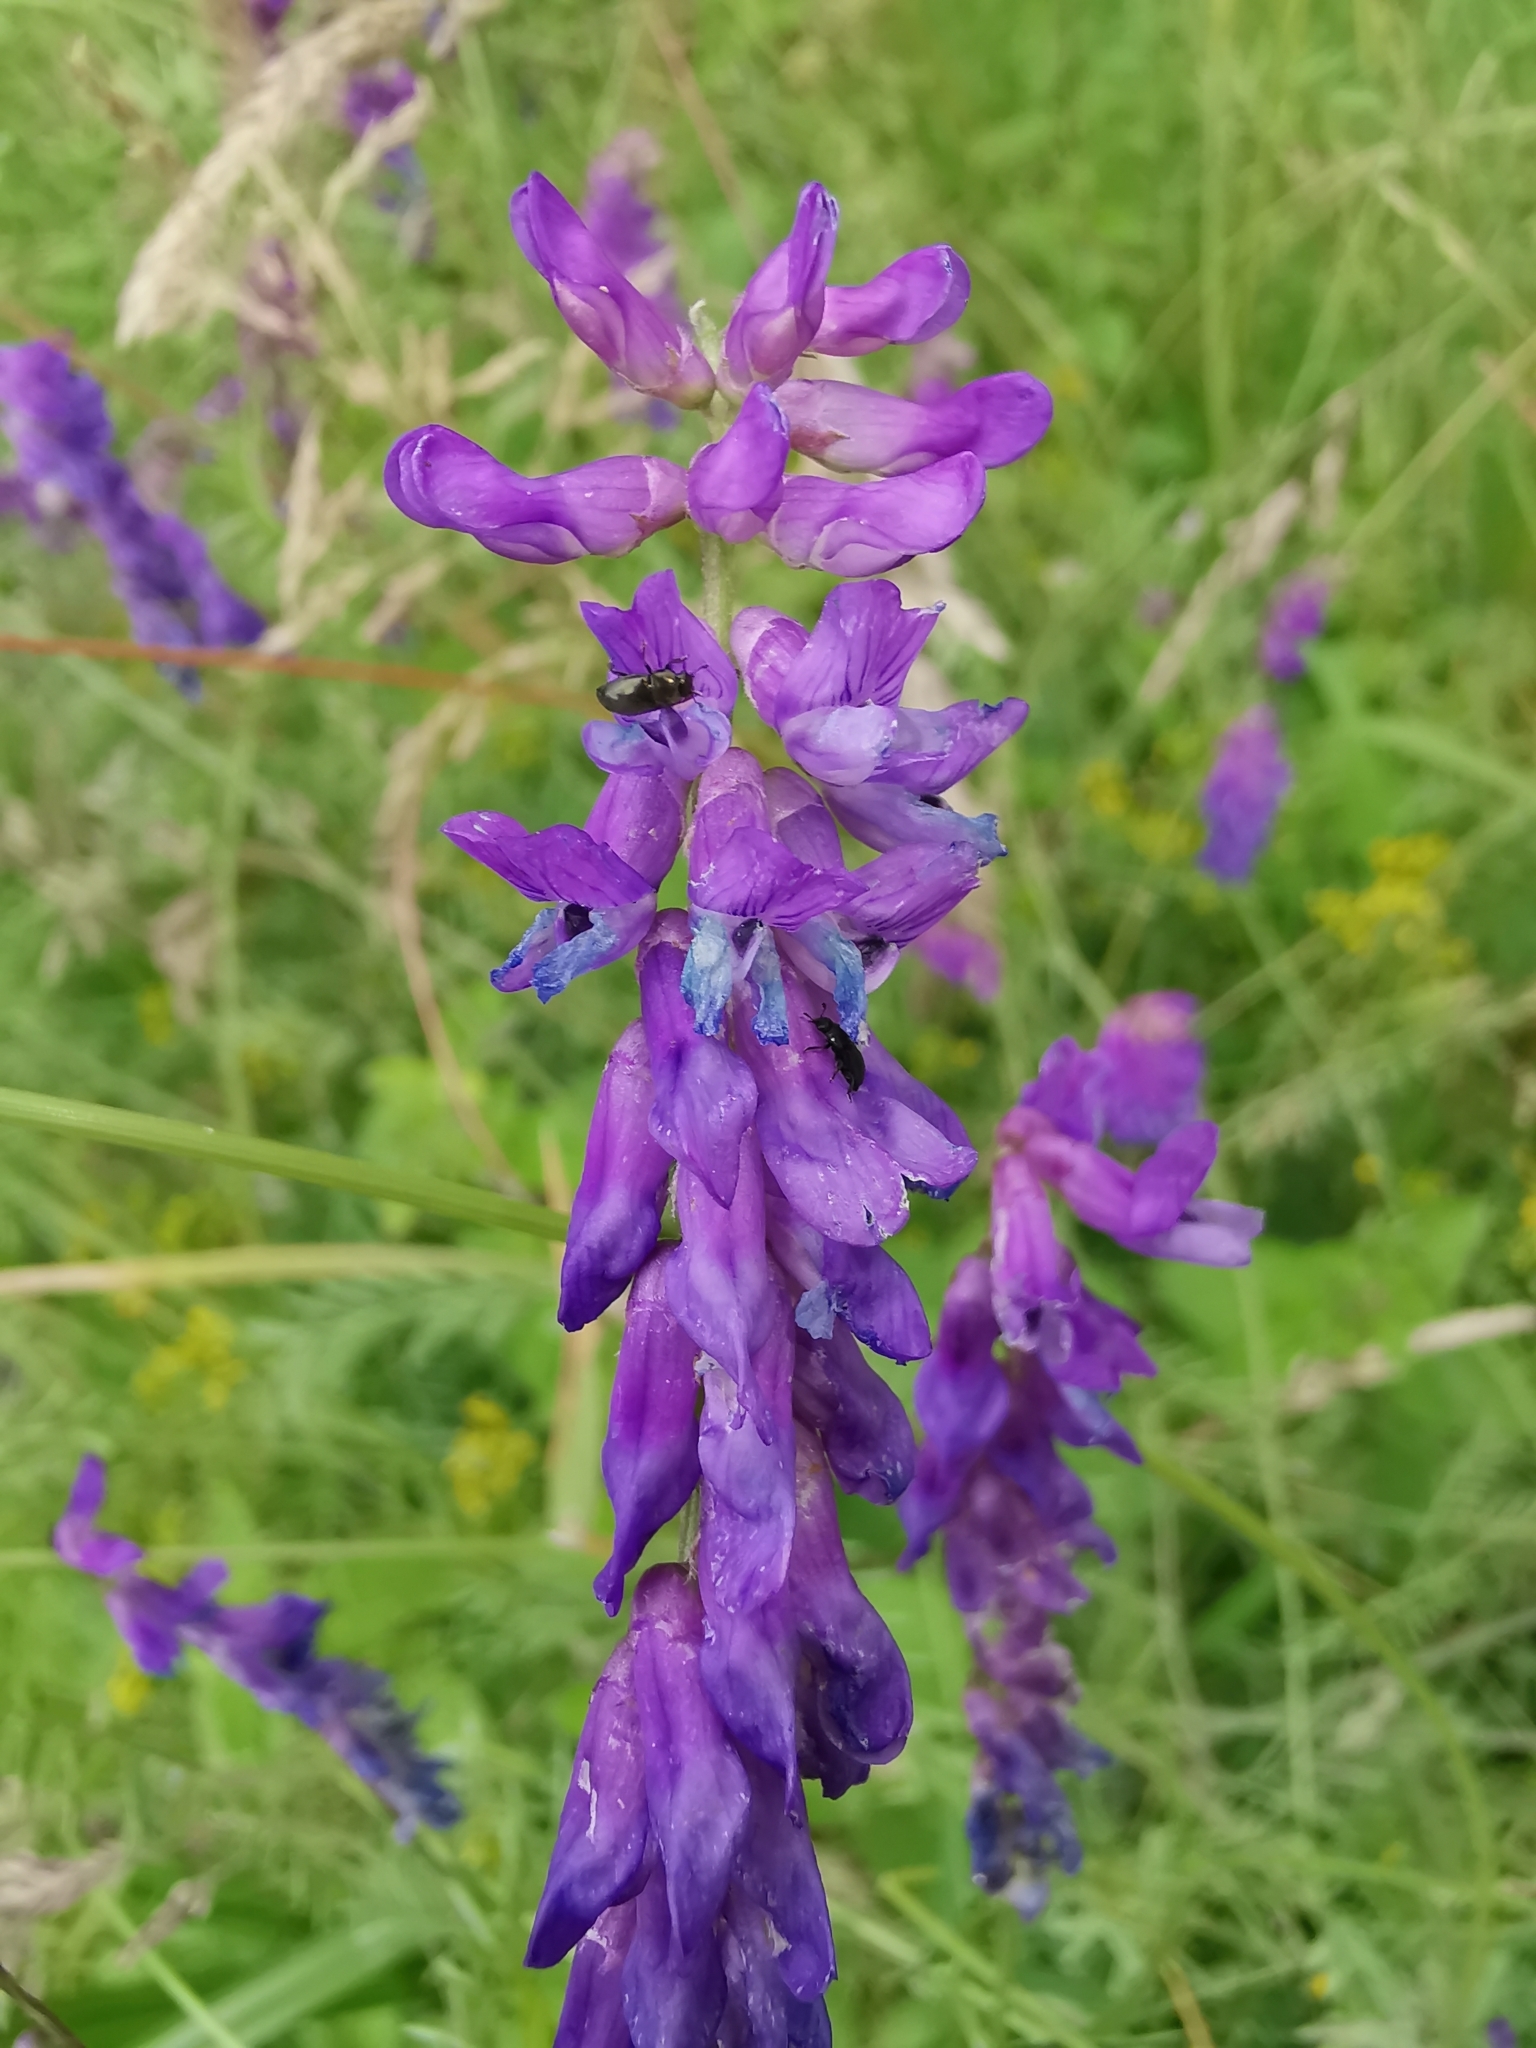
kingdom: Plantae
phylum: Tracheophyta
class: Magnoliopsida
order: Fabales
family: Fabaceae
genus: Vicia
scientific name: Vicia cracca
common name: Bird vetch
